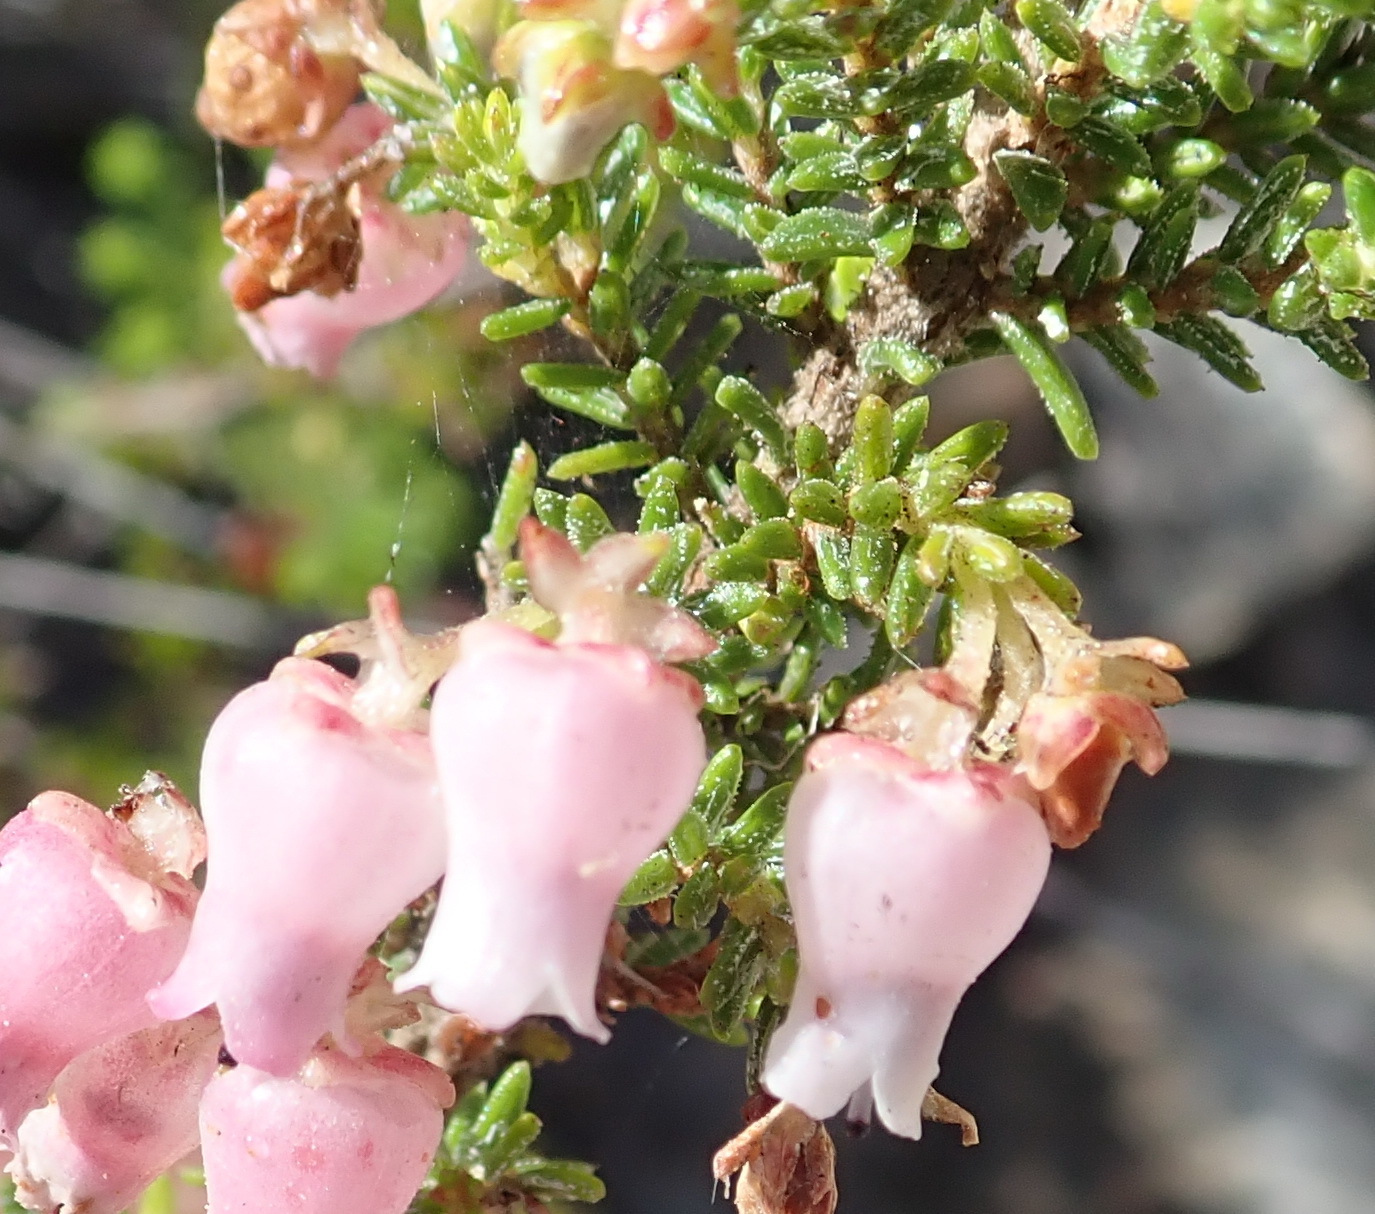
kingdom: Plantae
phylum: Tracheophyta
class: Magnoliopsida
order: Ericales
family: Ericaceae
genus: Erica
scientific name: Erica glomiflora
